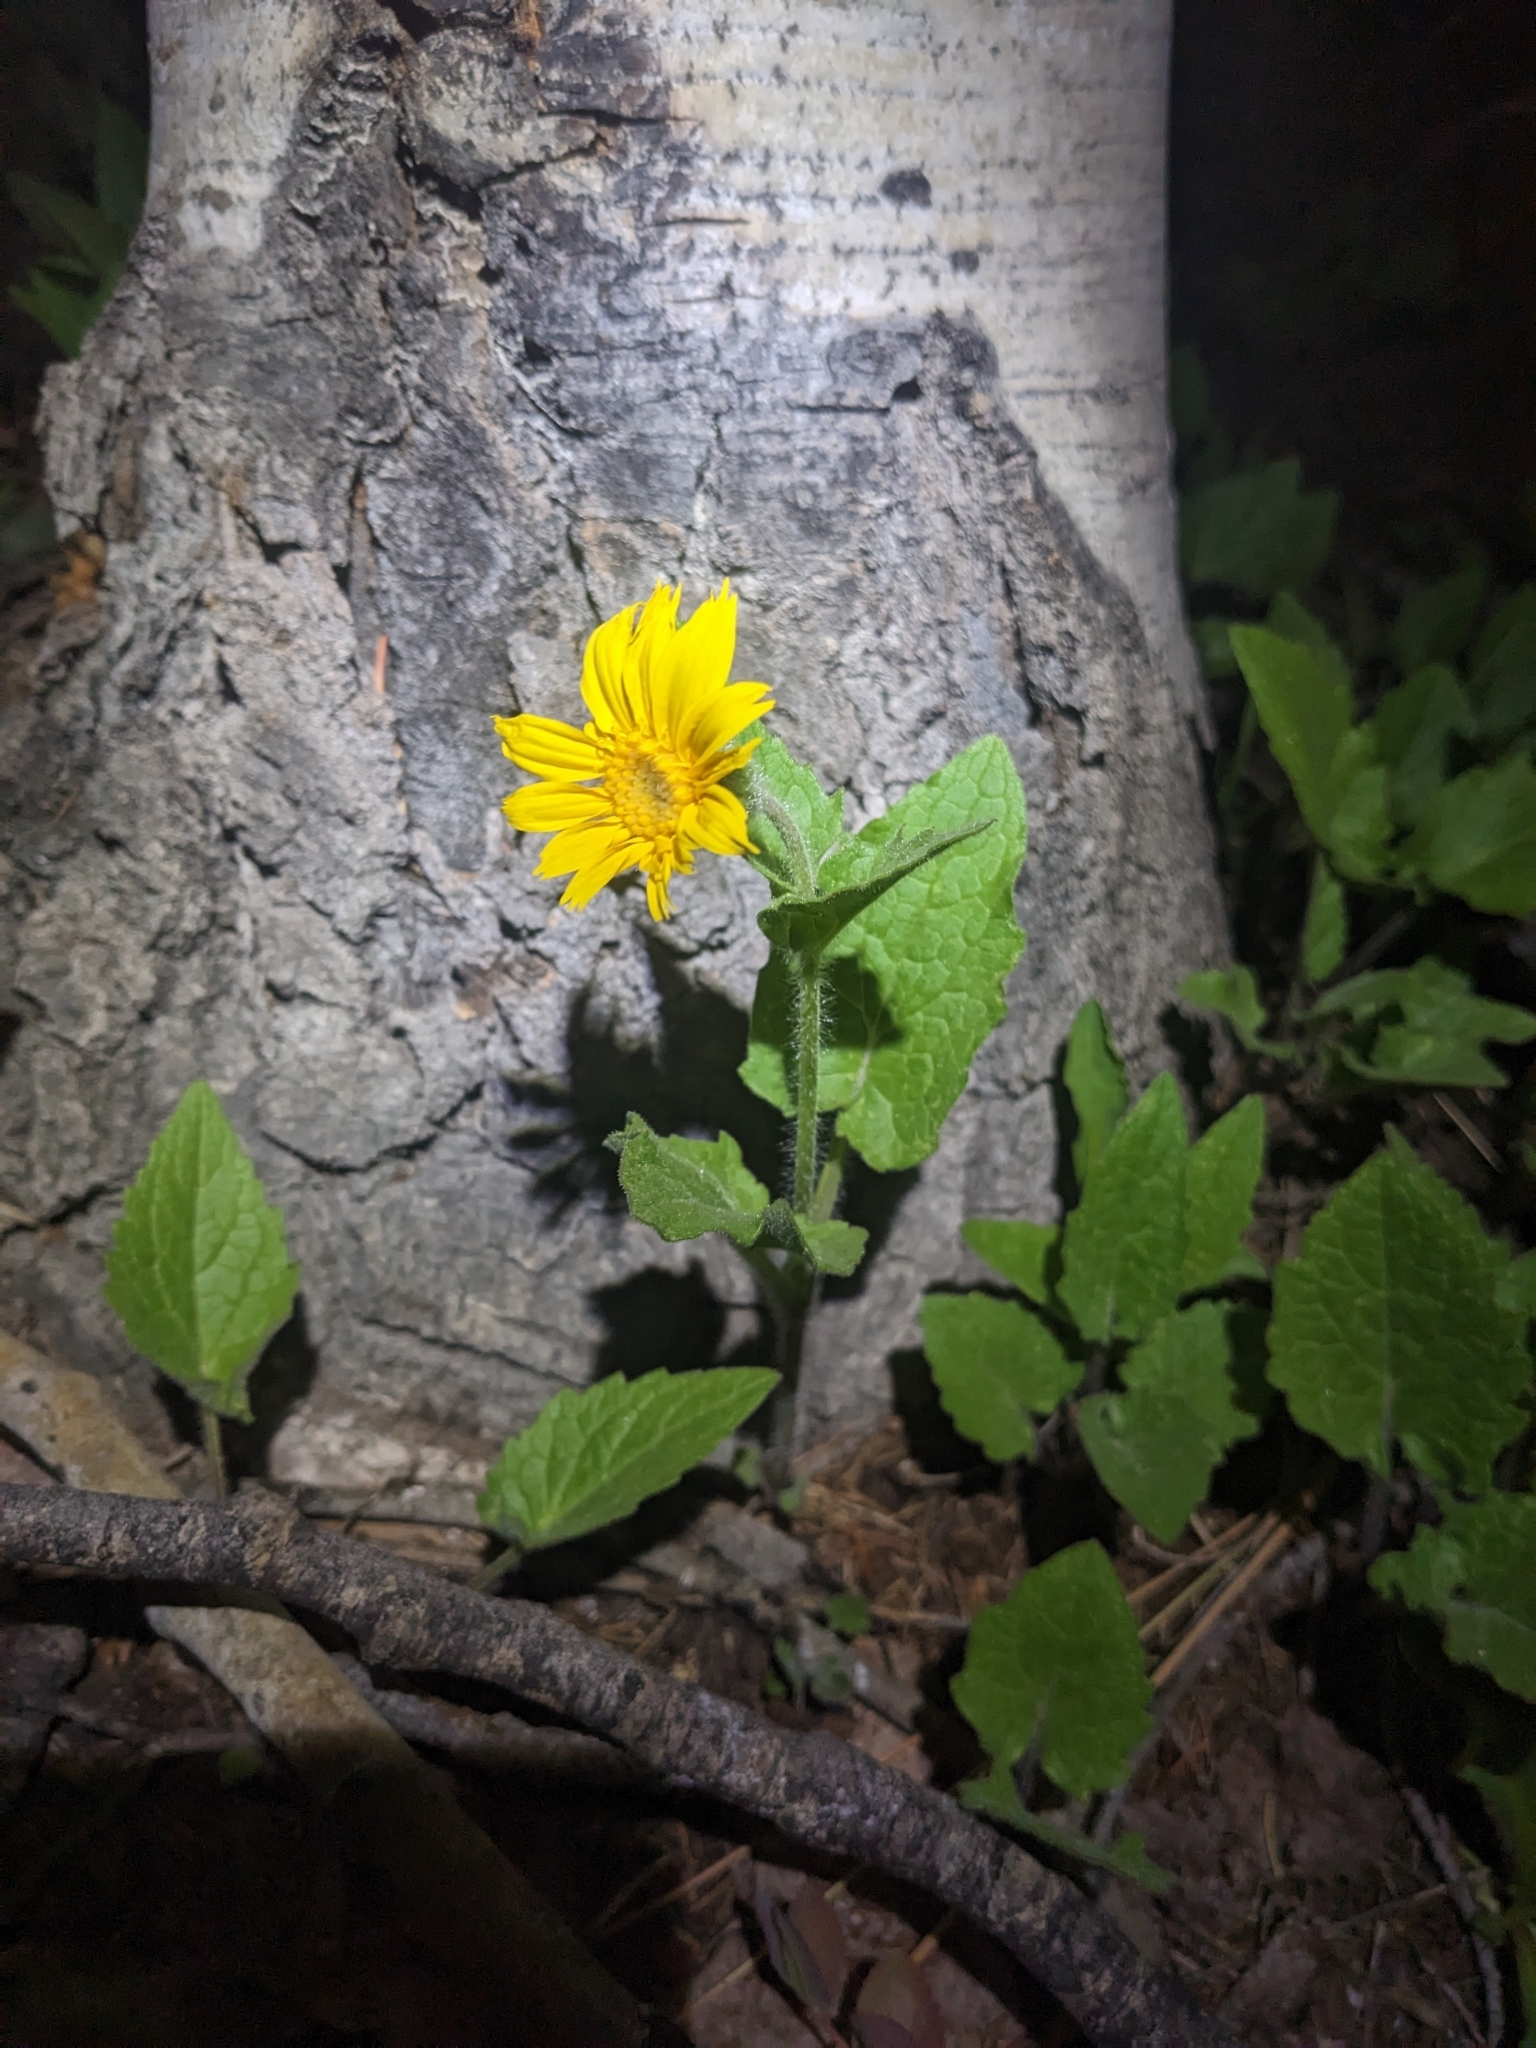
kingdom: Plantae
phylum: Tracheophyta
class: Magnoliopsida
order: Asterales
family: Asteraceae
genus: Arnica
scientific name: Arnica cordifolia
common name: Heart-leaf arnica
